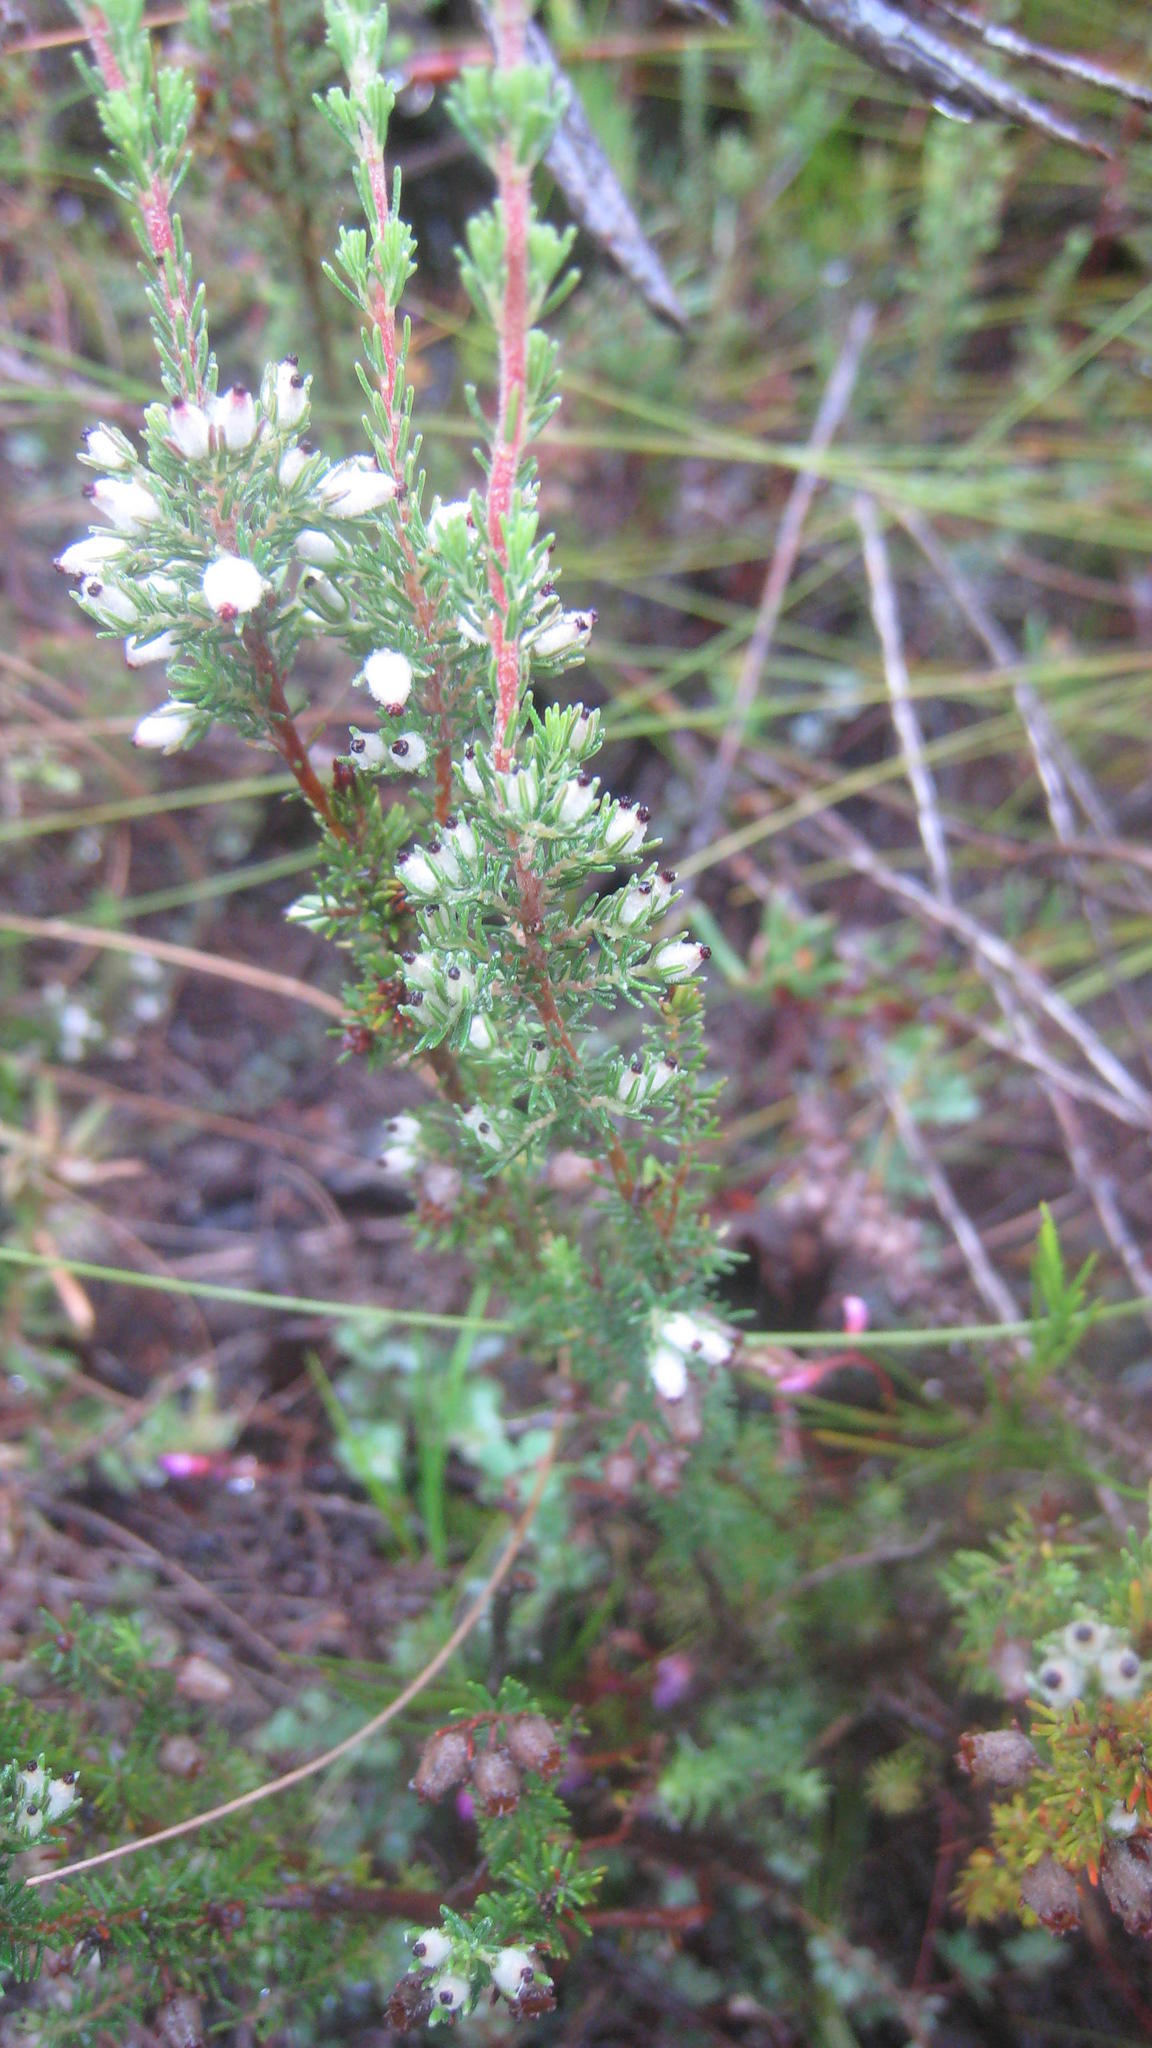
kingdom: Plantae
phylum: Tracheophyta
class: Magnoliopsida
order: Ericales
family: Ericaceae
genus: Erica
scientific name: Erica pubigera
